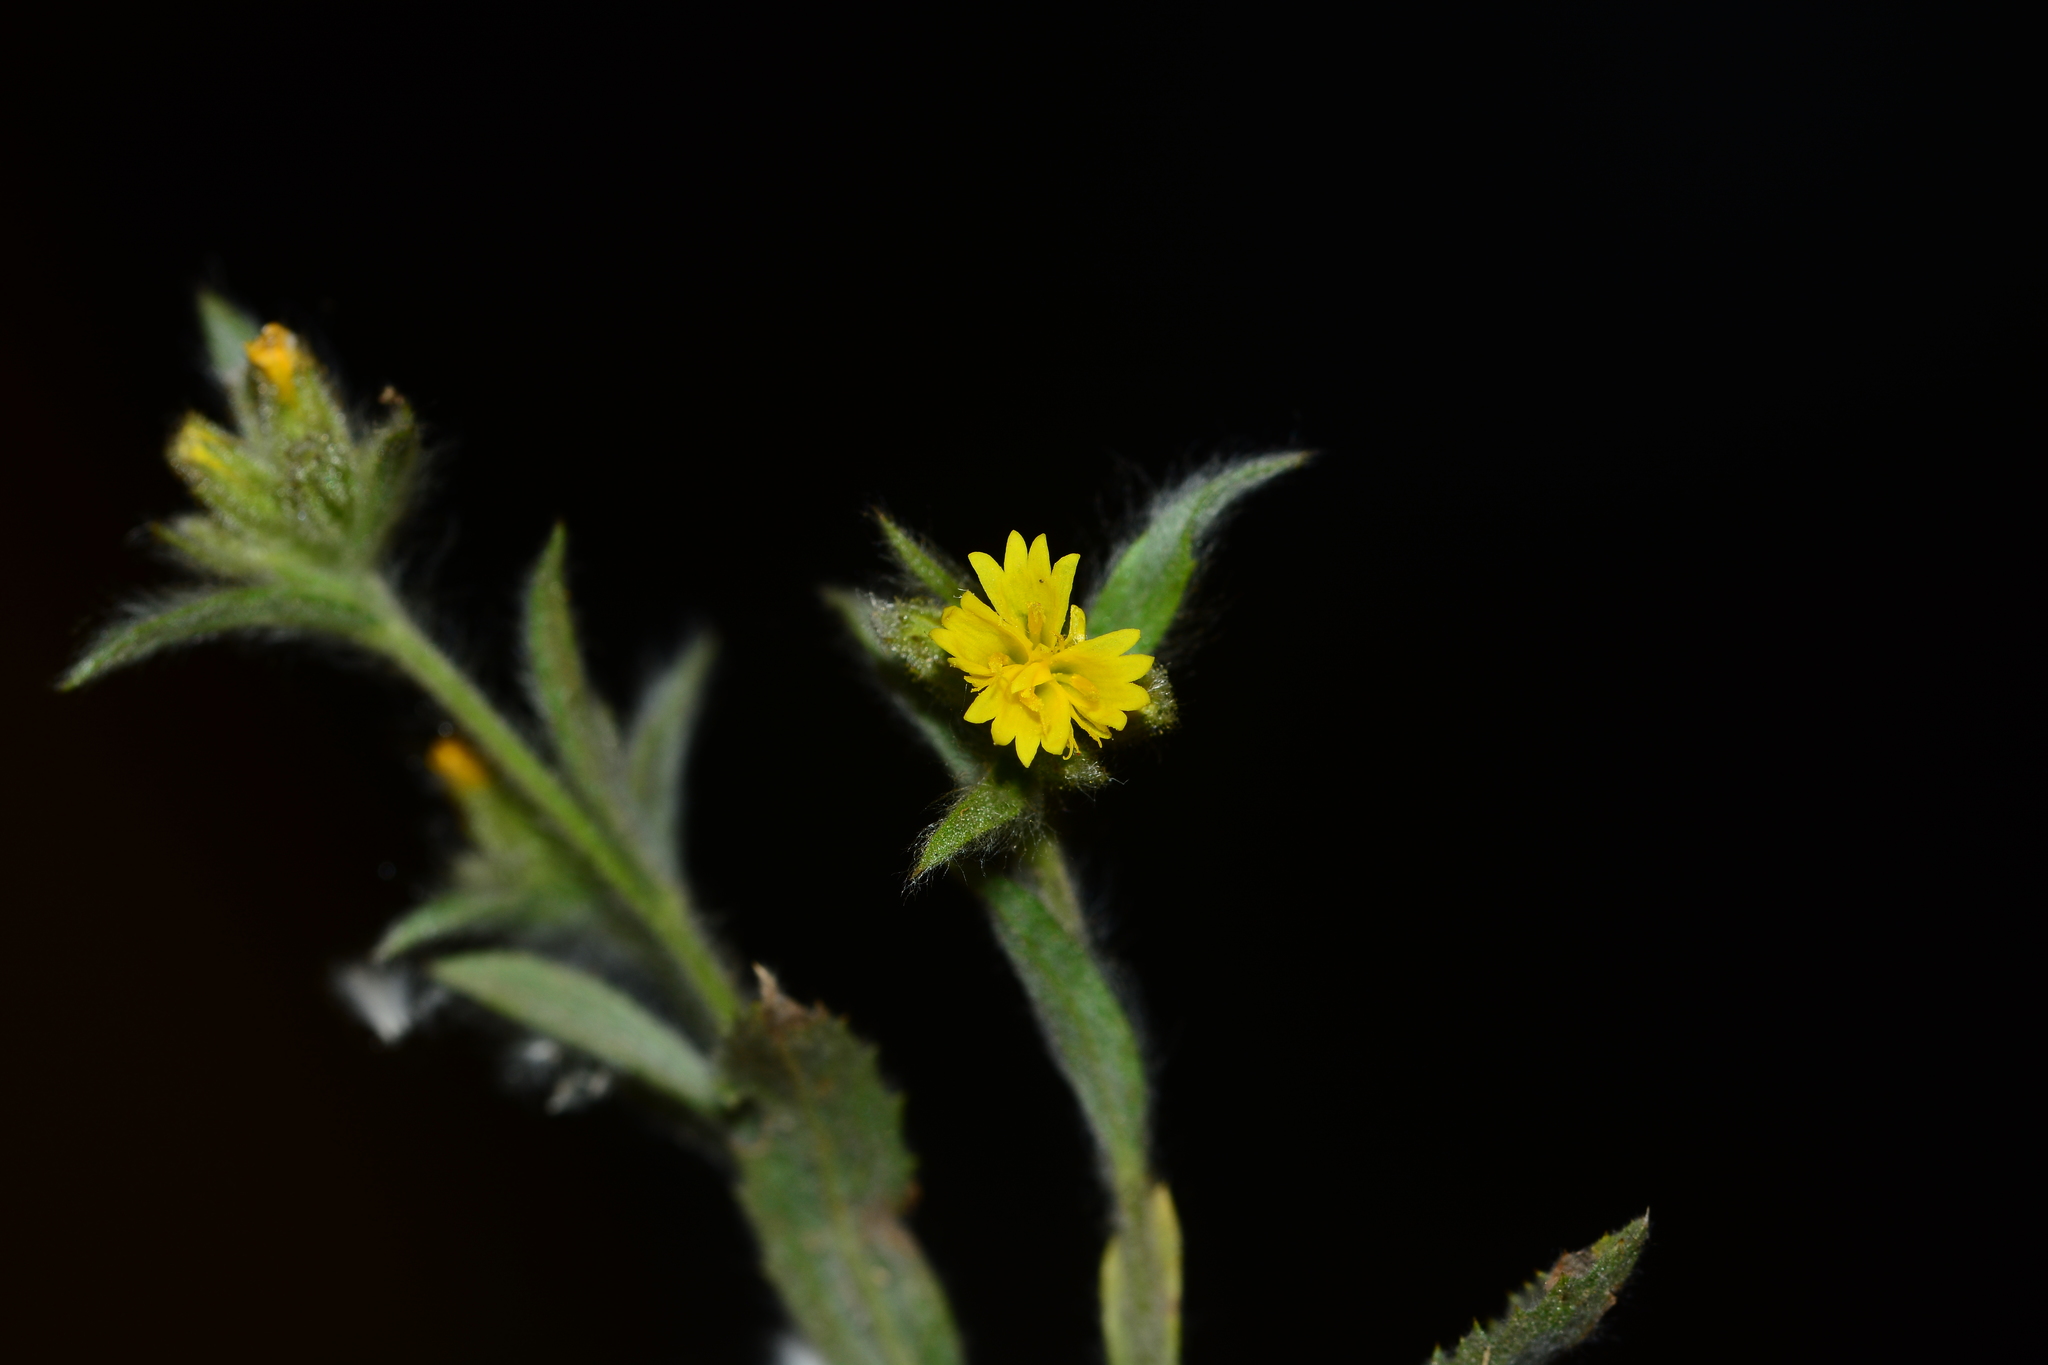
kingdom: Plantae
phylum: Tracheophyta
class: Magnoliopsida
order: Asterales
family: Asteraceae
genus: Nanothamnus
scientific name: Nanothamnus sericeus
